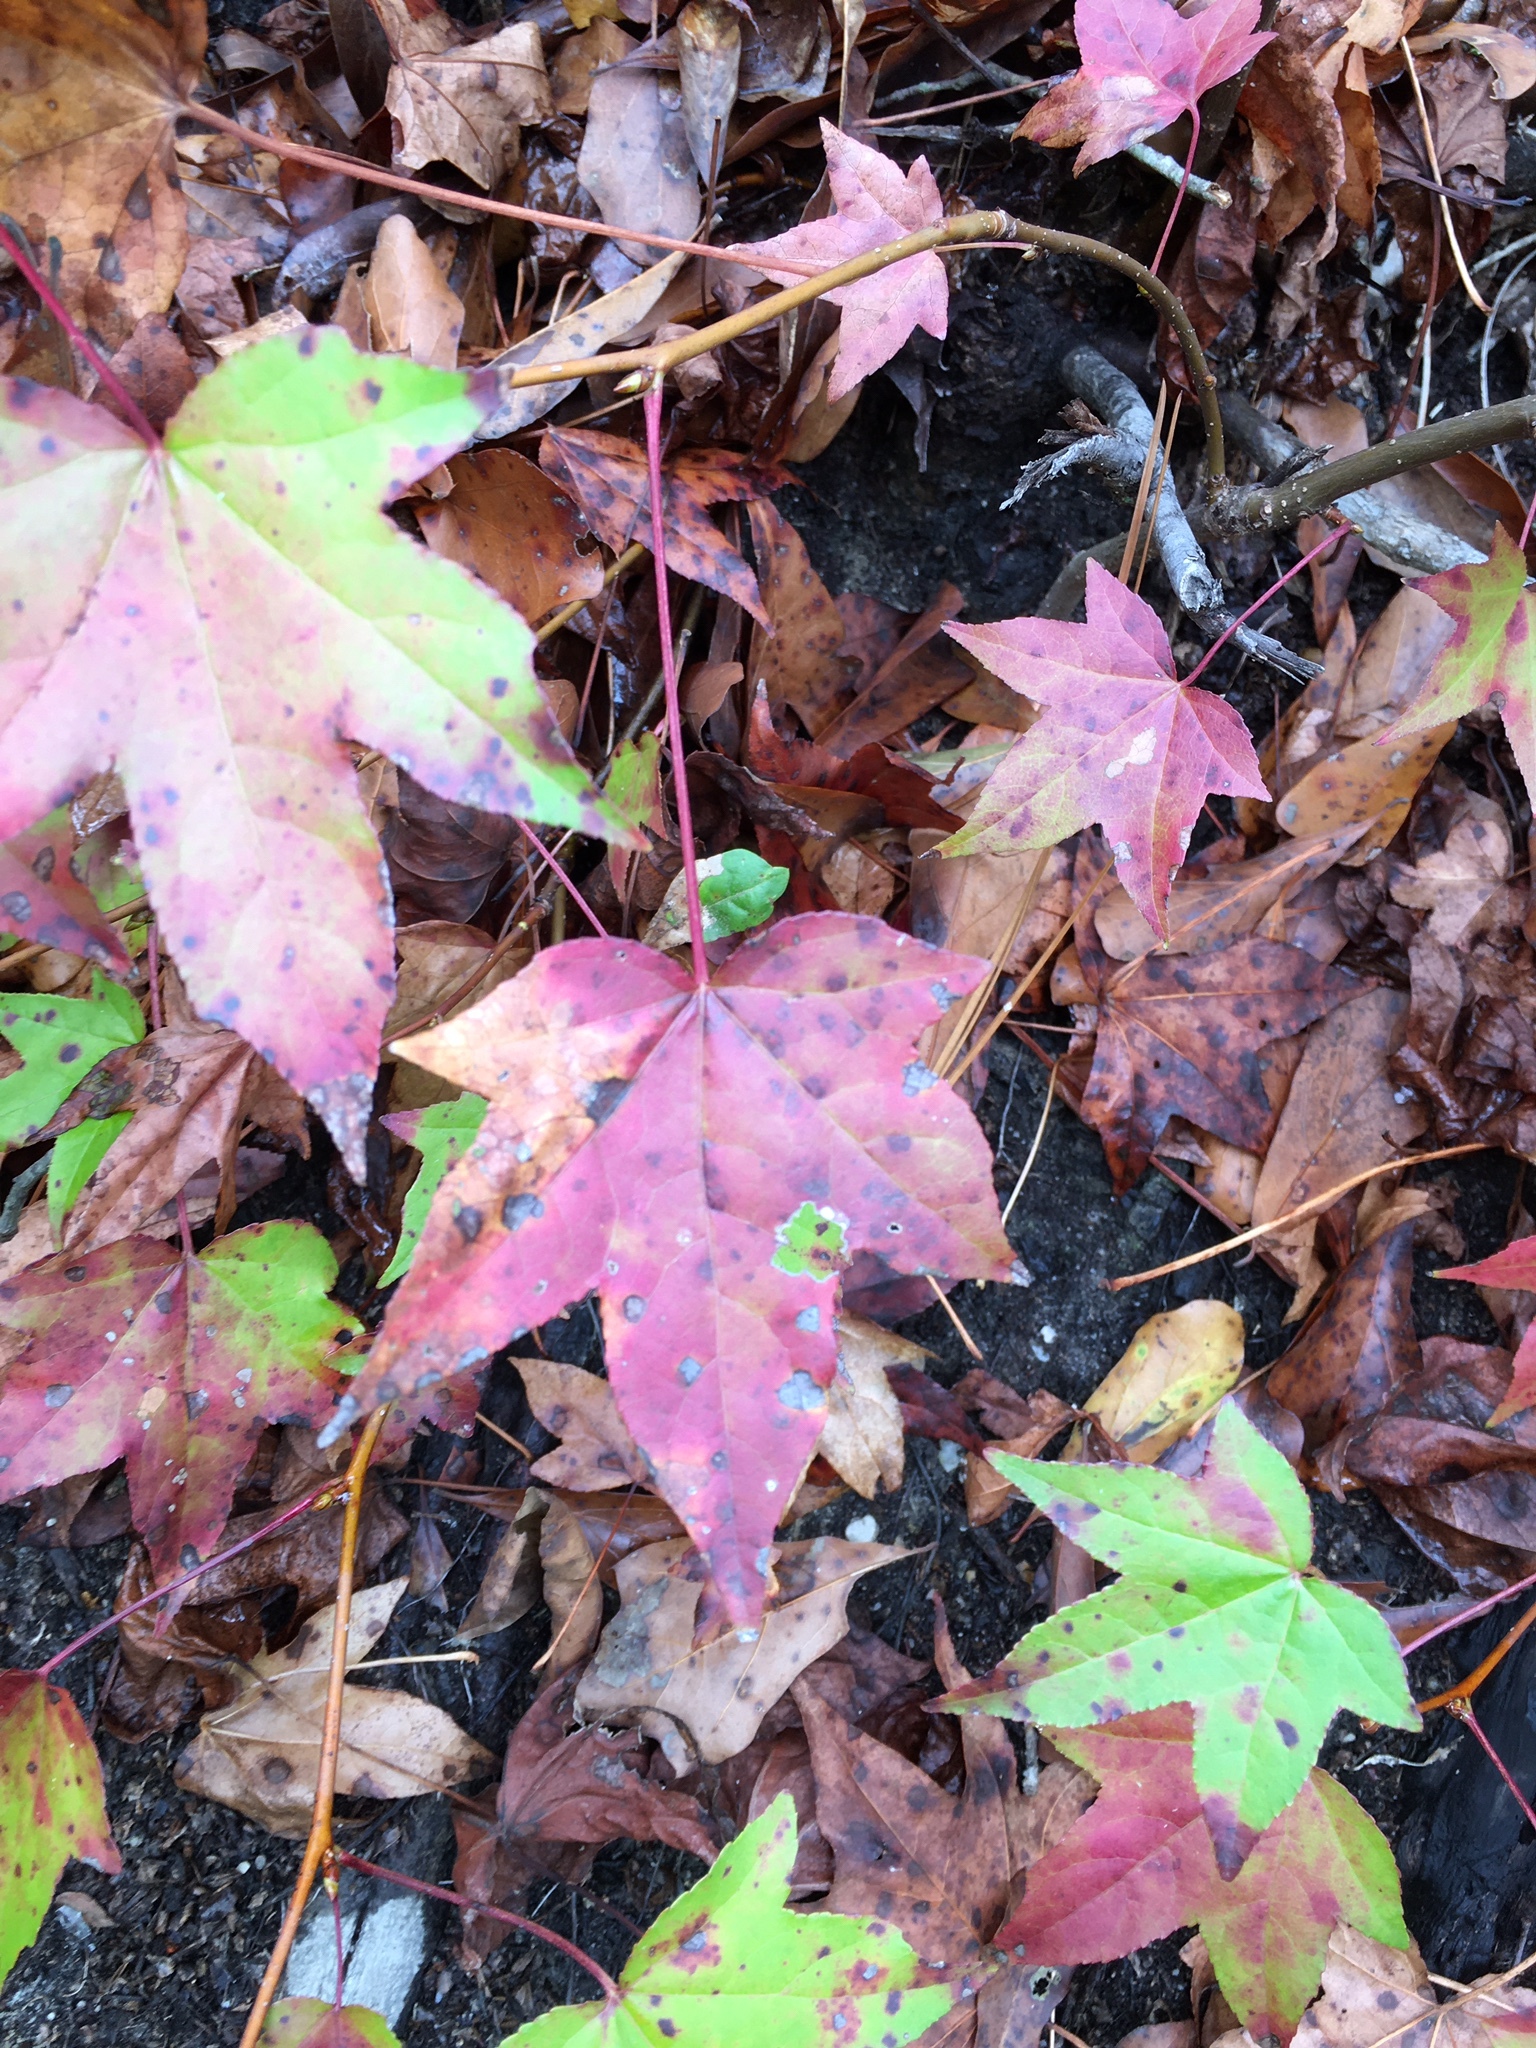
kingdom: Plantae
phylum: Tracheophyta
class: Magnoliopsida
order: Saxifragales
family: Altingiaceae
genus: Liquidambar
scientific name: Liquidambar styraciflua
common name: Sweet gum
